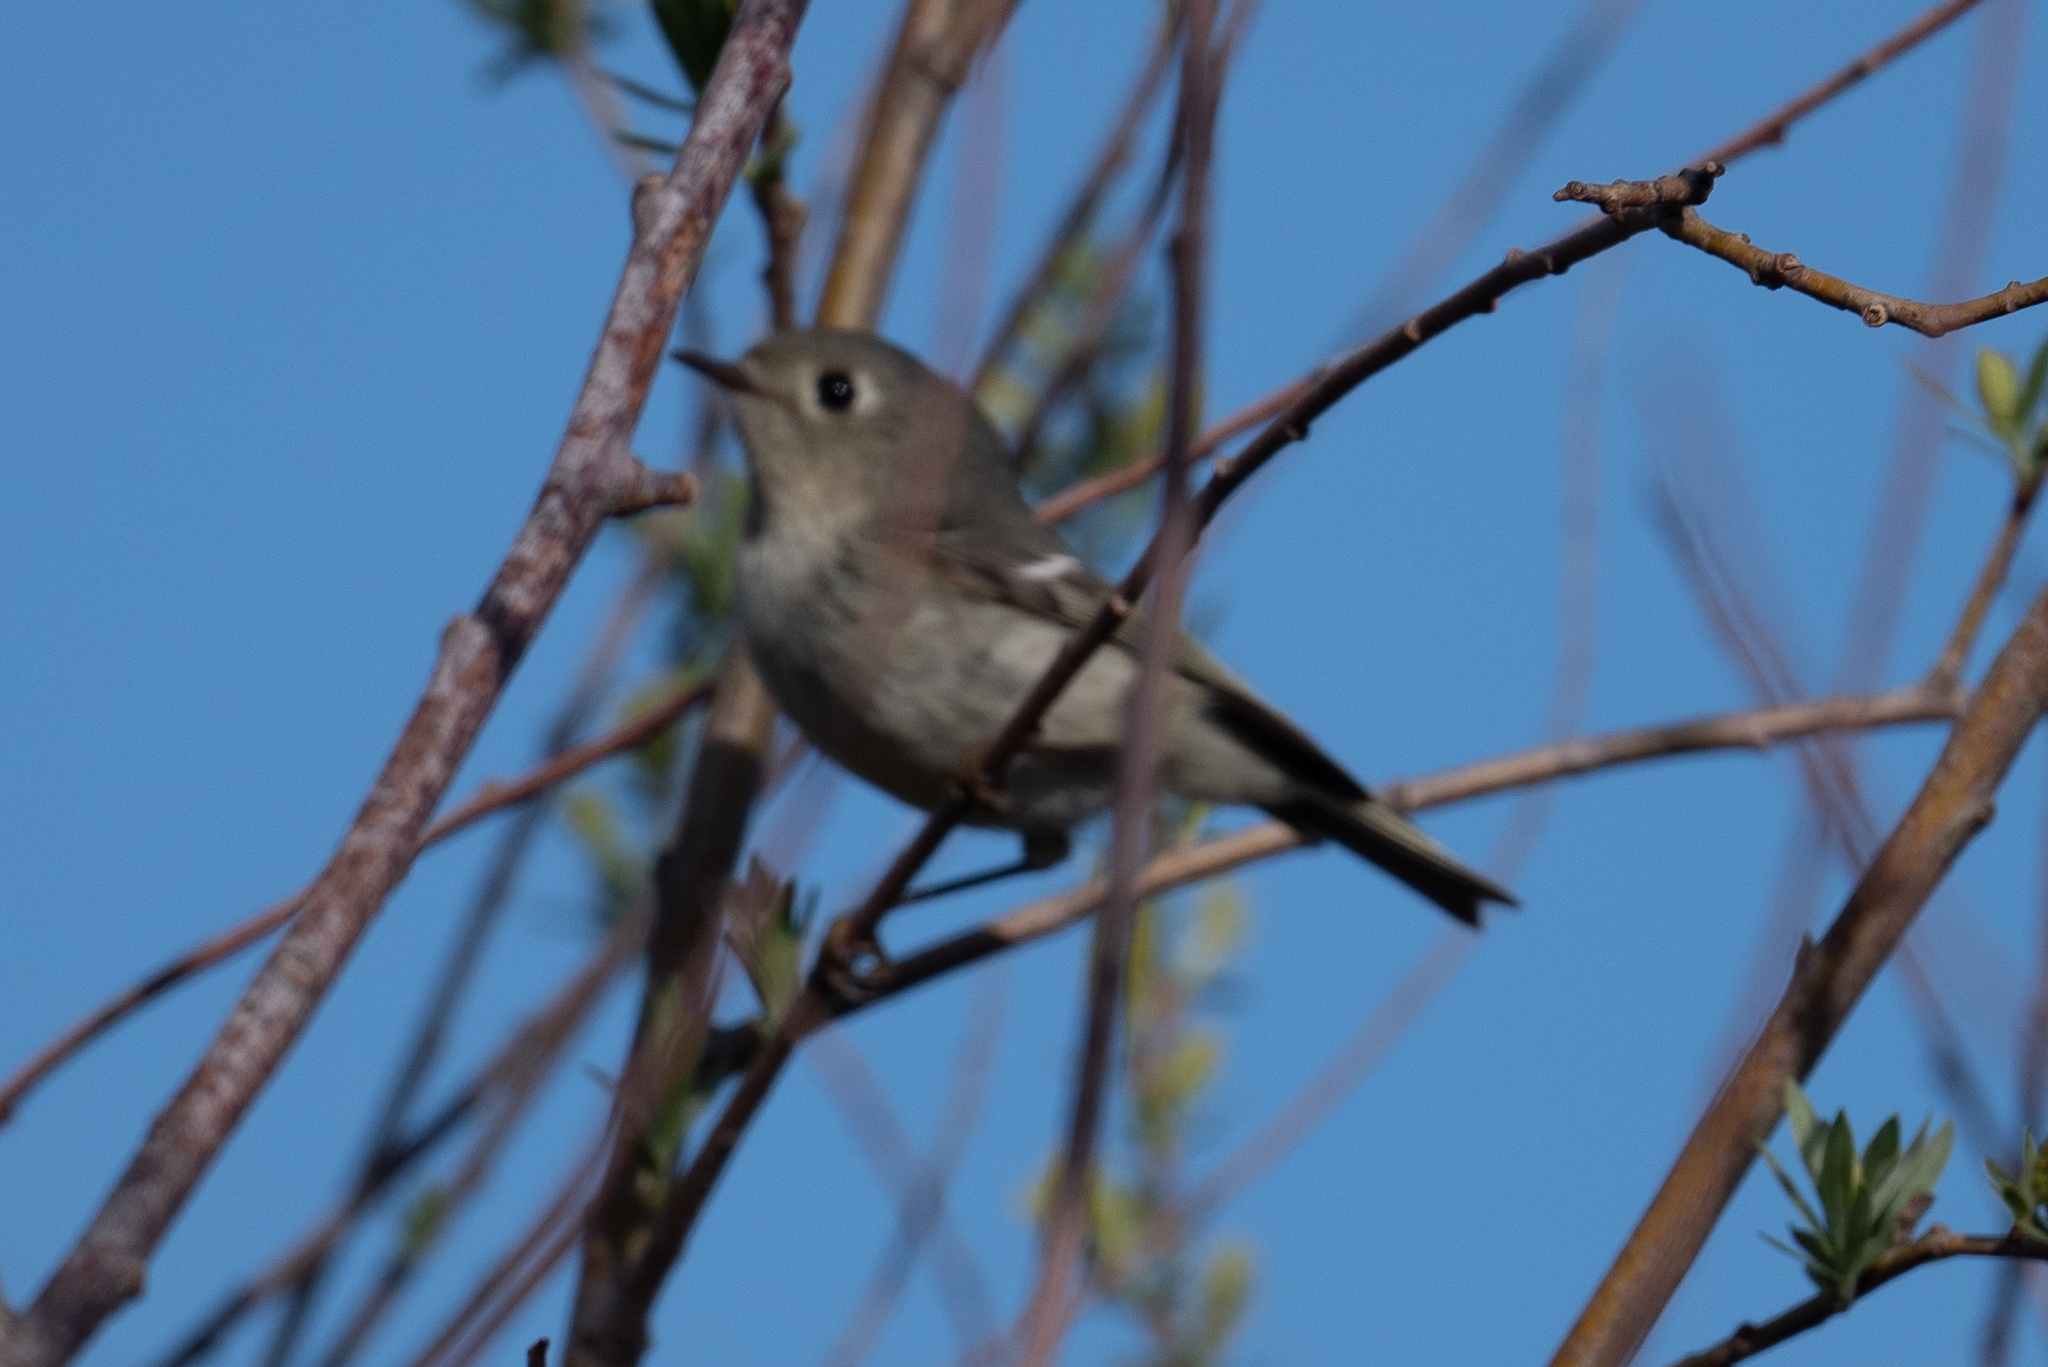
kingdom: Animalia
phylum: Chordata
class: Aves
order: Passeriformes
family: Regulidae
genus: Regulus
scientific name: Regulus calendula
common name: Ruby-crowned kinglet
